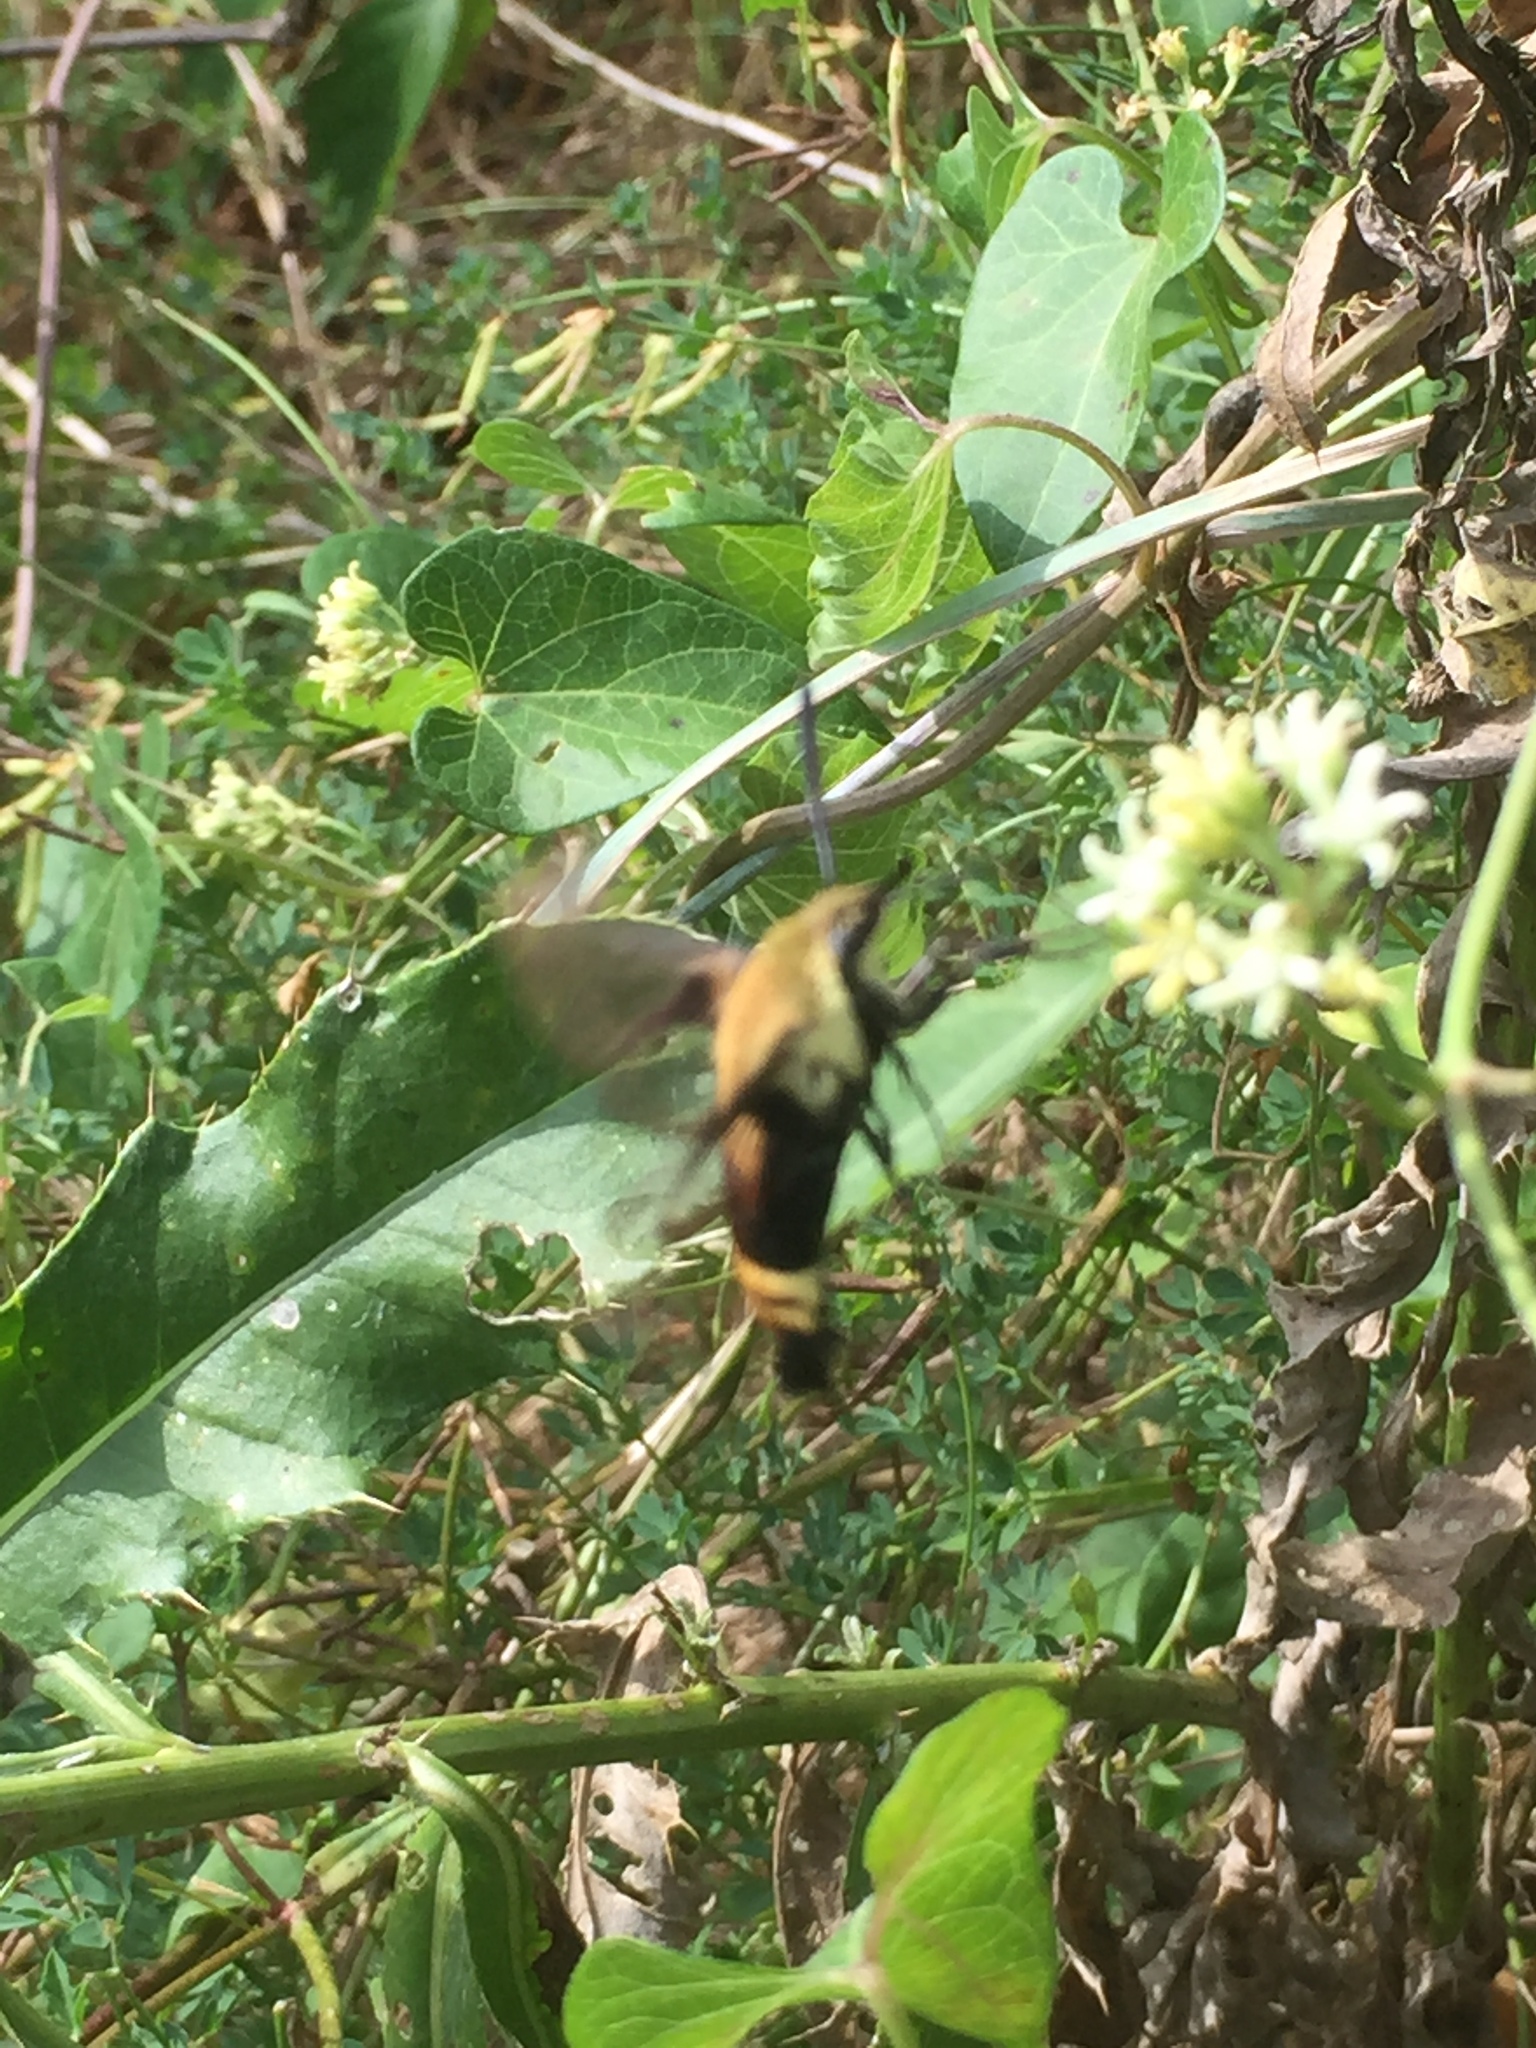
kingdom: Animalia
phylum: Arthropoda
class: Insecta
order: Lepidoptera
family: Sphingidae
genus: Hemaris
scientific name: Hemaris diffinis
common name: Bumblebee moth
